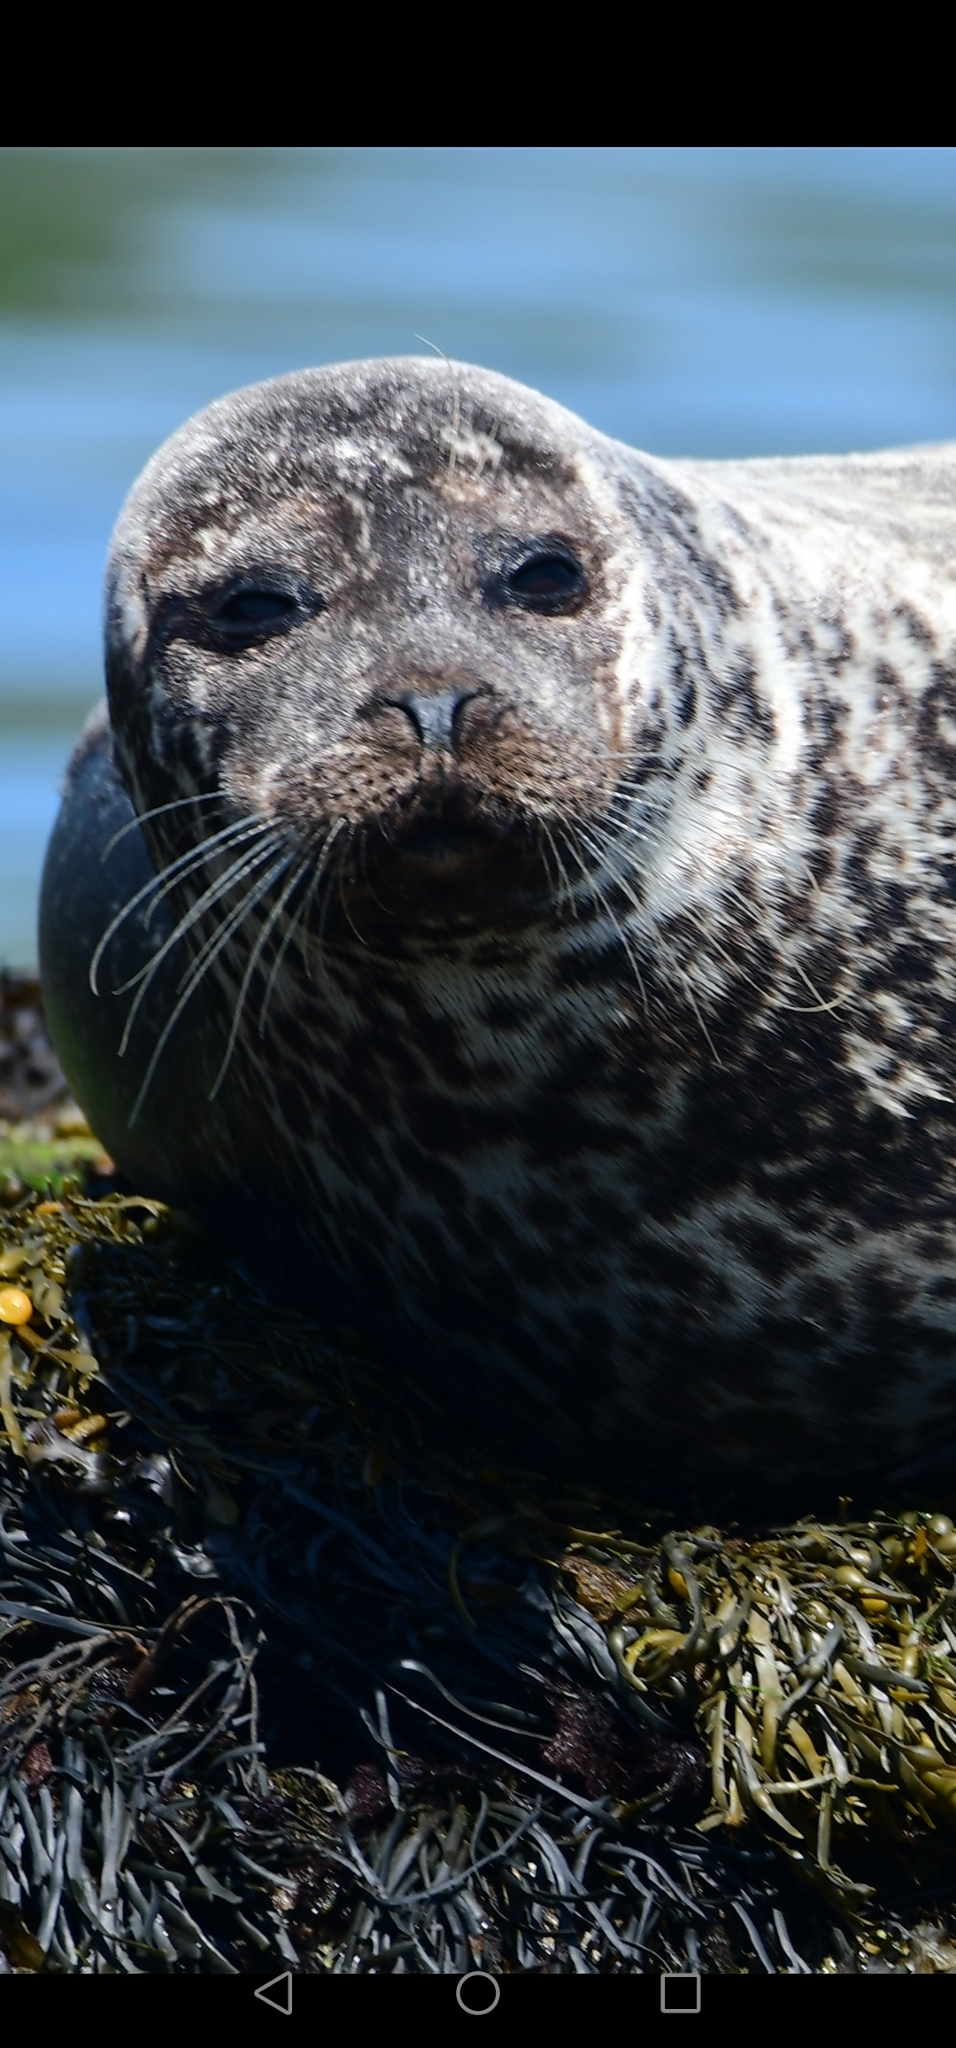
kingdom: Animalia
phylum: Chordata
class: Mammalia
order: Carnivora
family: Phocidae
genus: Phoca
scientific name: Phoca vitulina
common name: Harbor seal
